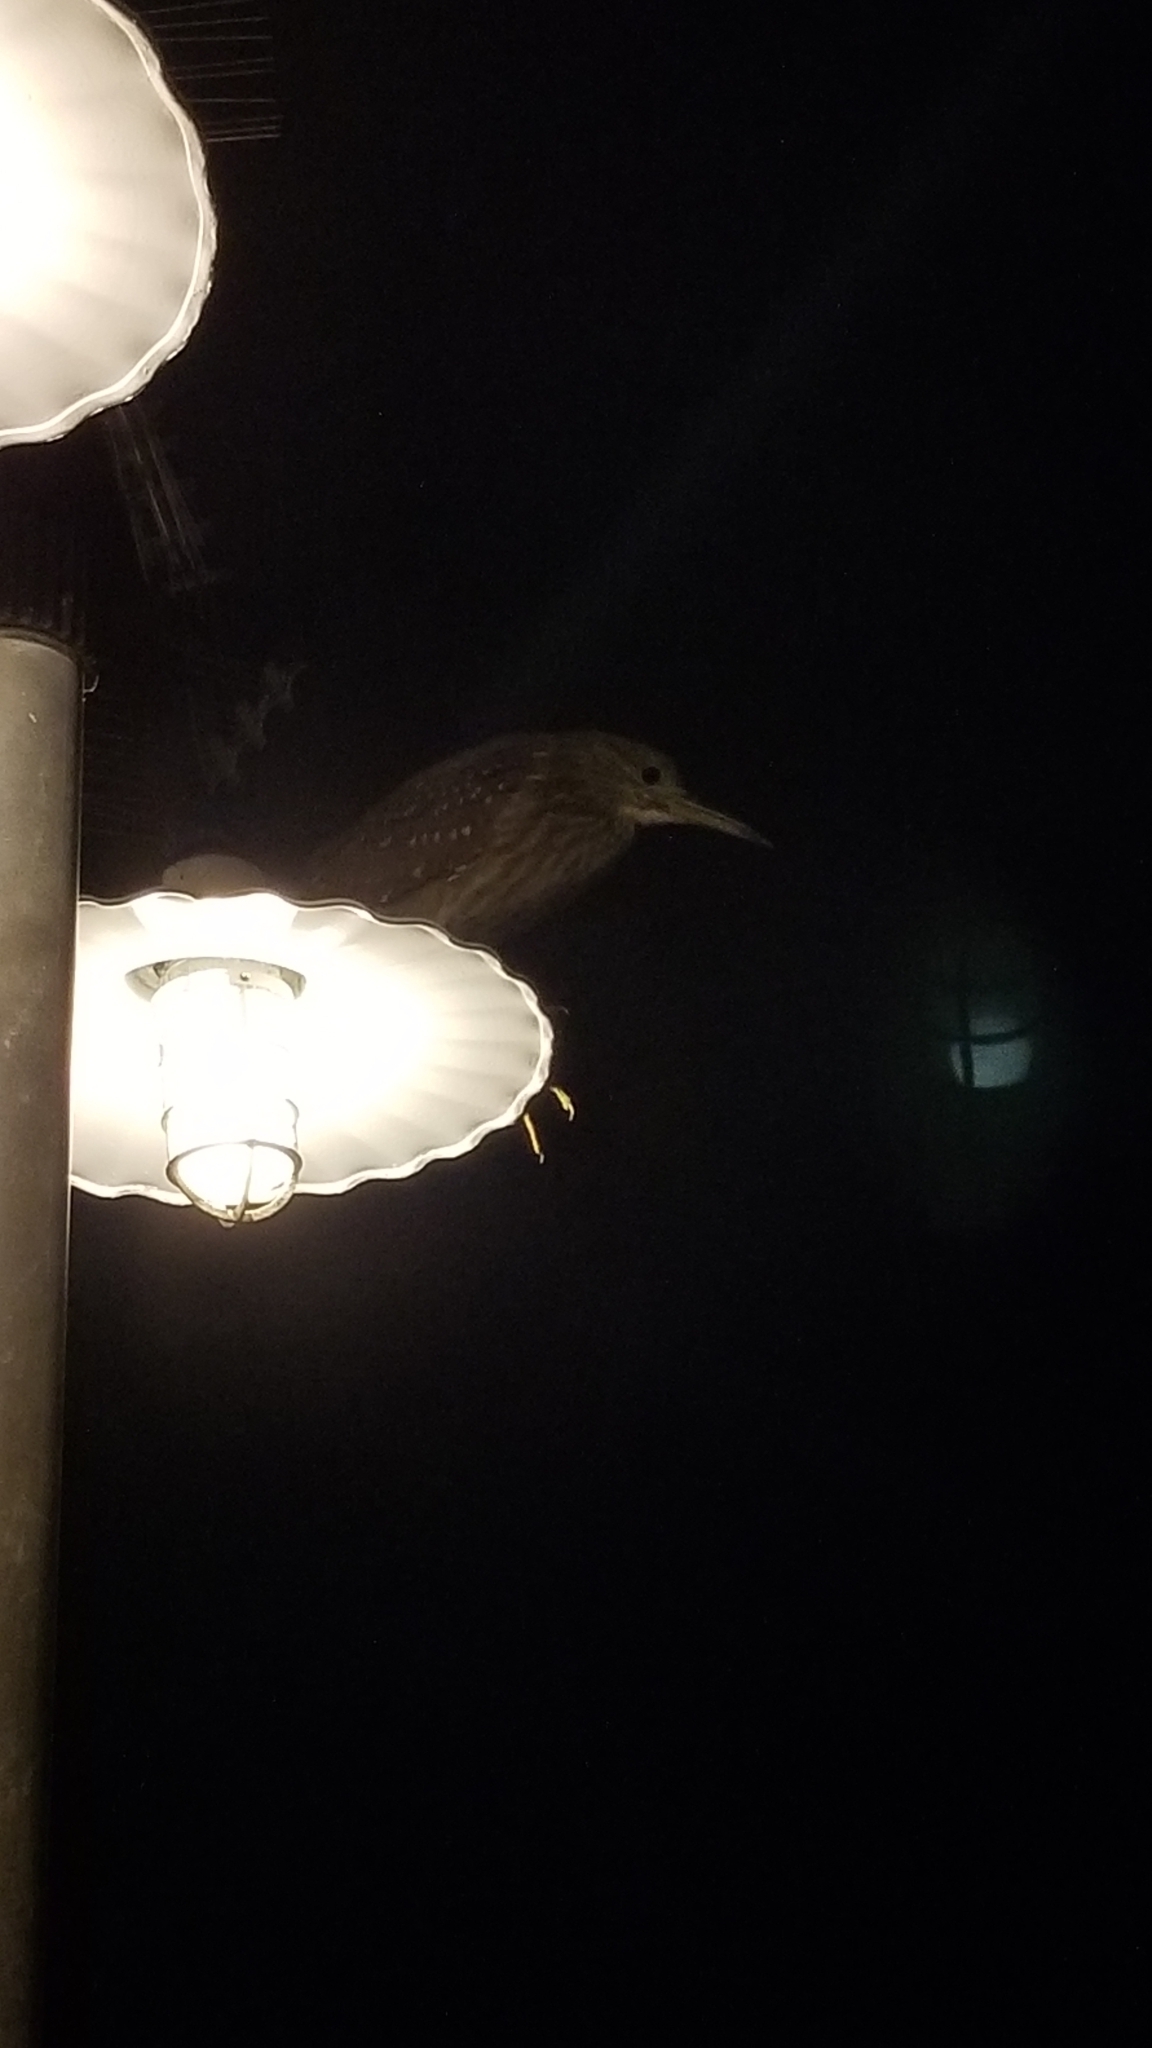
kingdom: Animalia
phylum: Chordata
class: Aves
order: Pelecaniformes
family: Ardeidae
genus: Nycticorax
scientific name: Nycticorax nycticorax
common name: Black-crowned night heron
